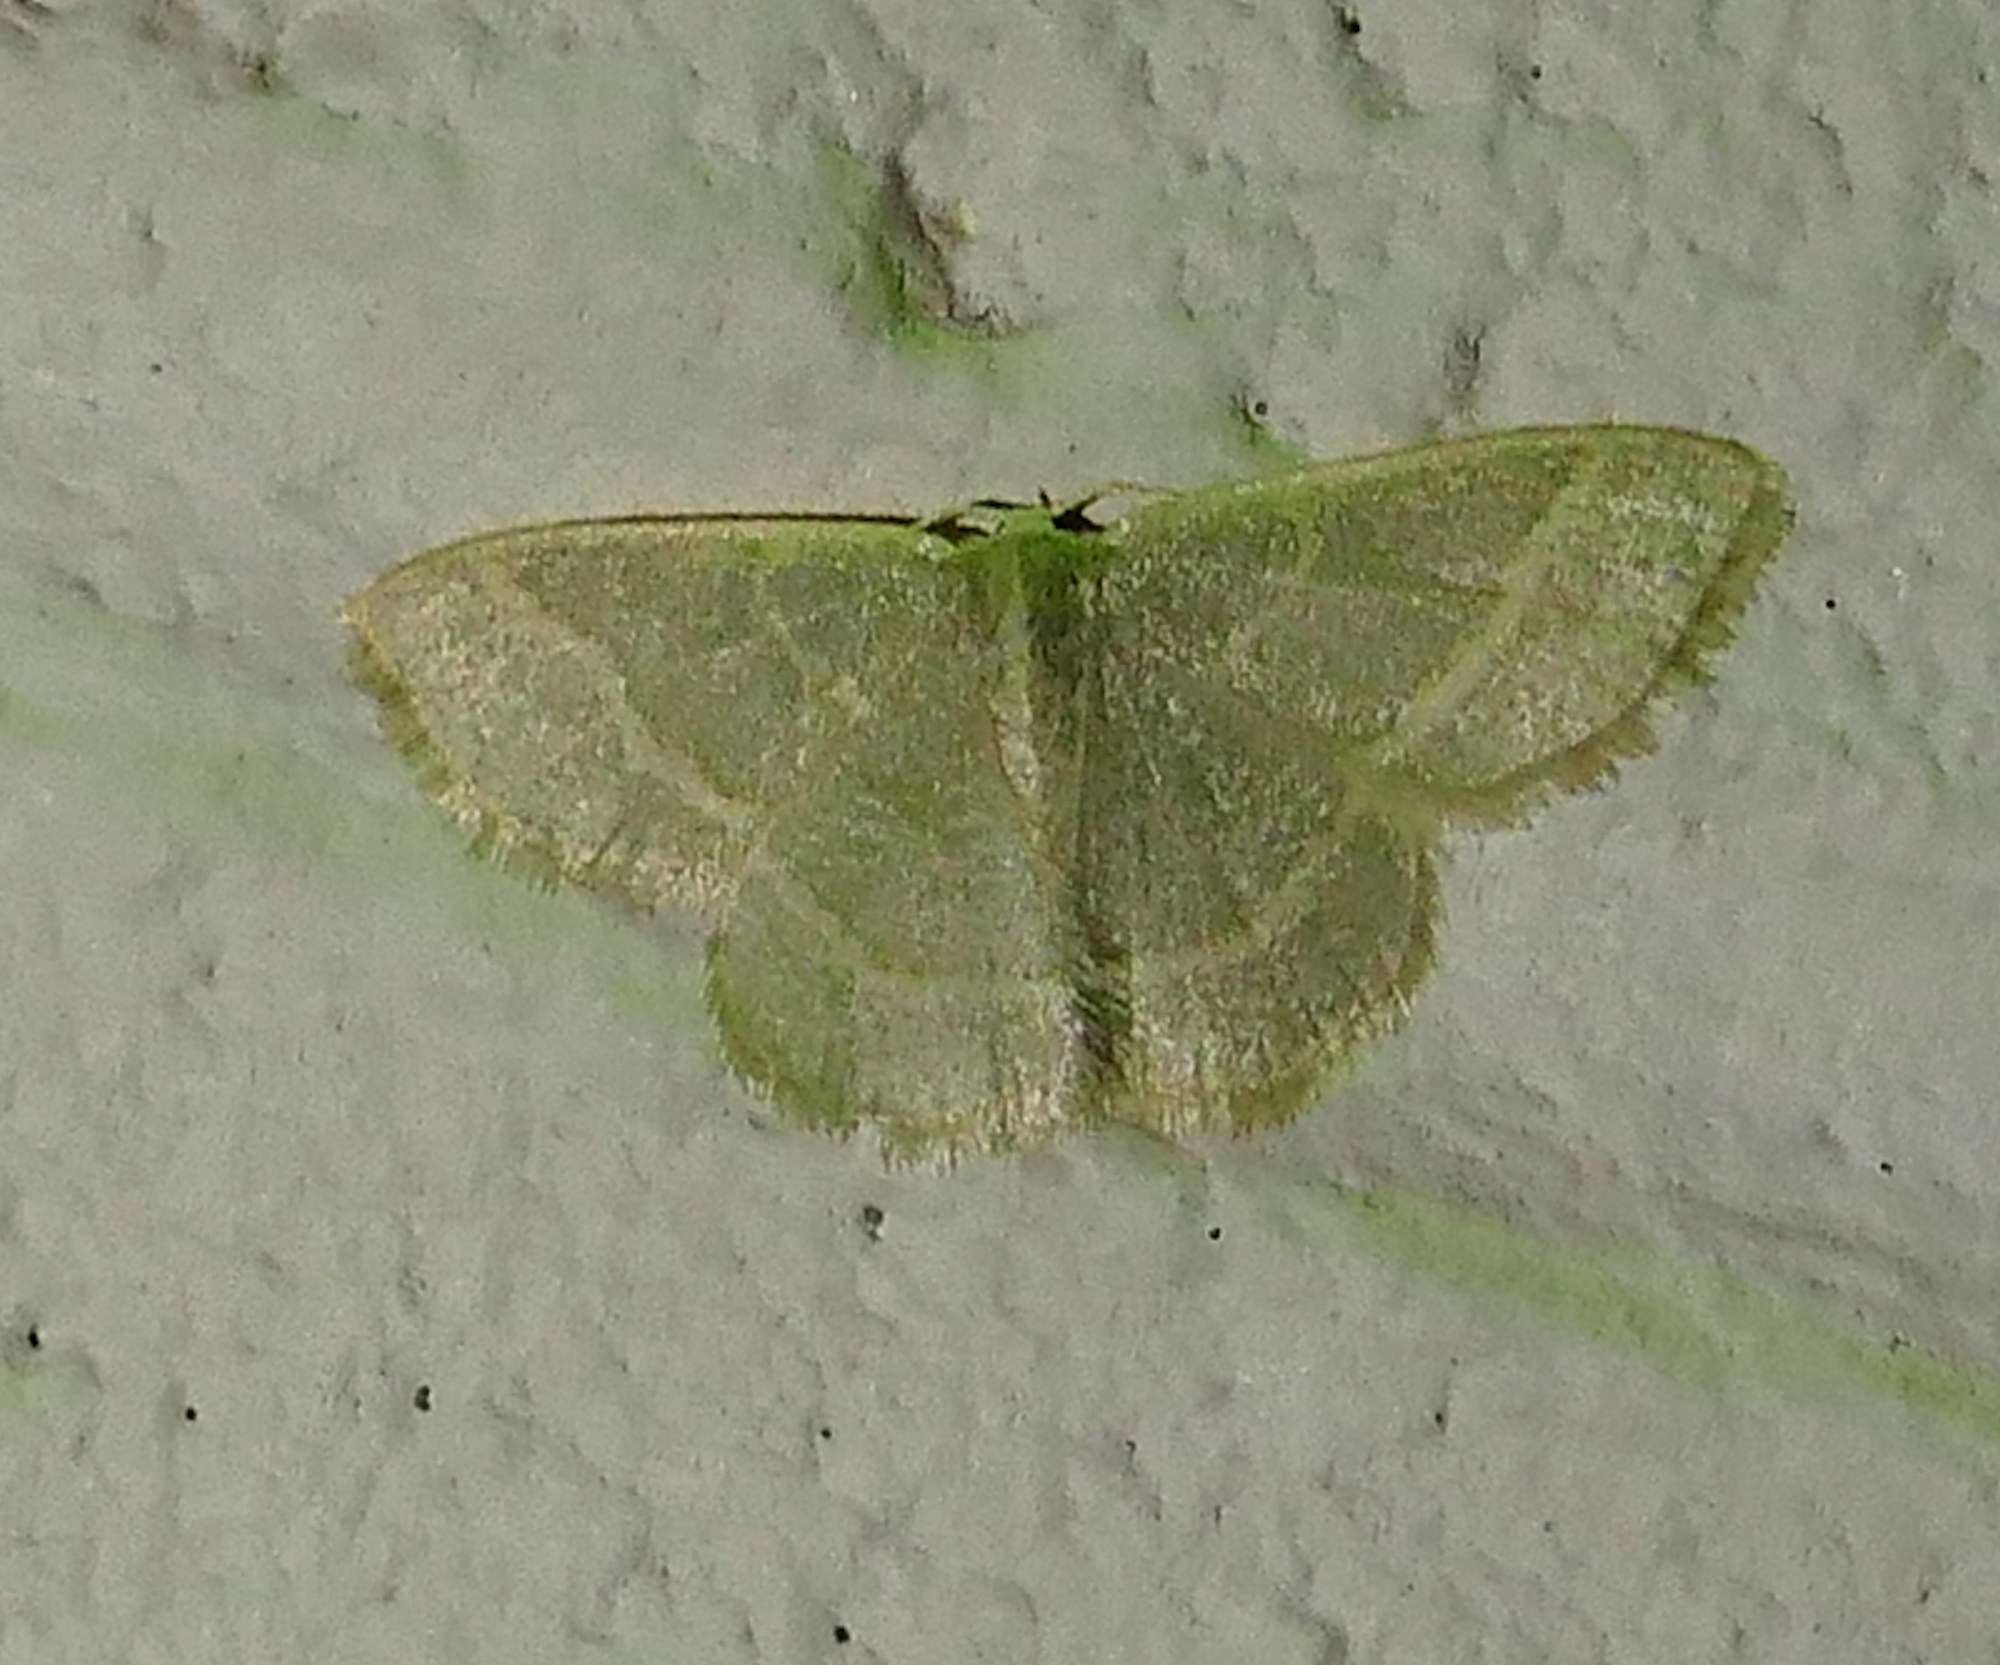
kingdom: Animalia
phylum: Arthropoda
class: Insecta
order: Lepidoptera
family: Geometridae
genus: Chlorochlamys
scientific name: Chlorochlamys chloroleucaria
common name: Blackberry looper
